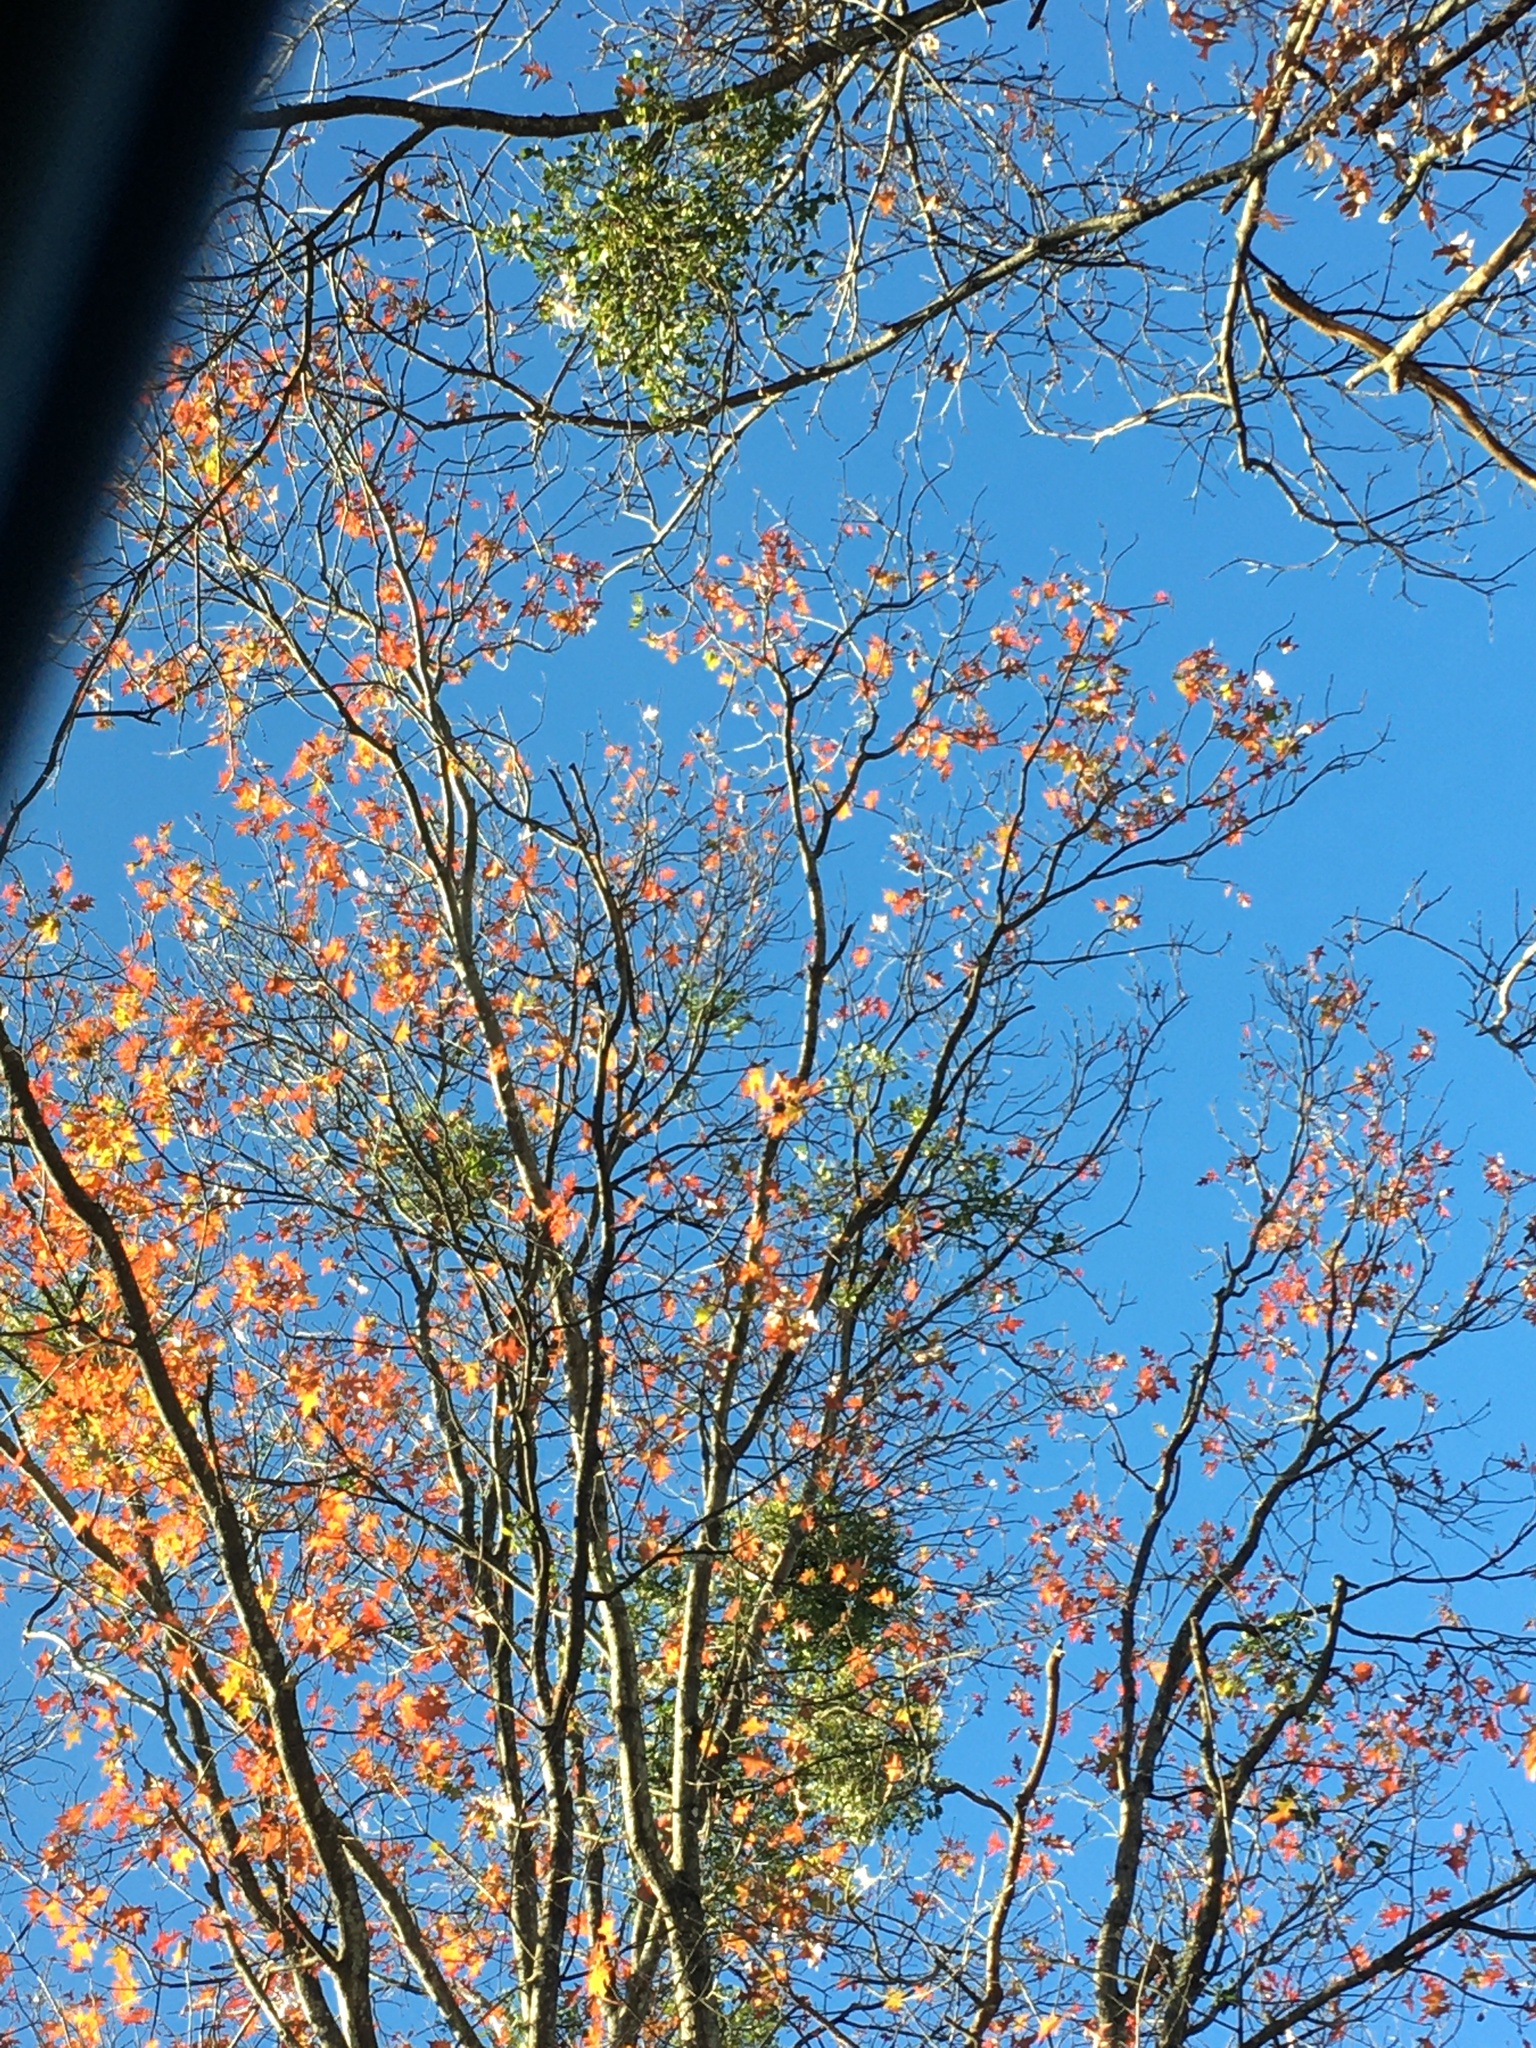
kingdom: Plantae
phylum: Tracheophyta
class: Magnoliopsida
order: Santalales
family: Viscaceae
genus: Phoradendron
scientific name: Phoradendron leucarpum
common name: Pacific mistletoe
